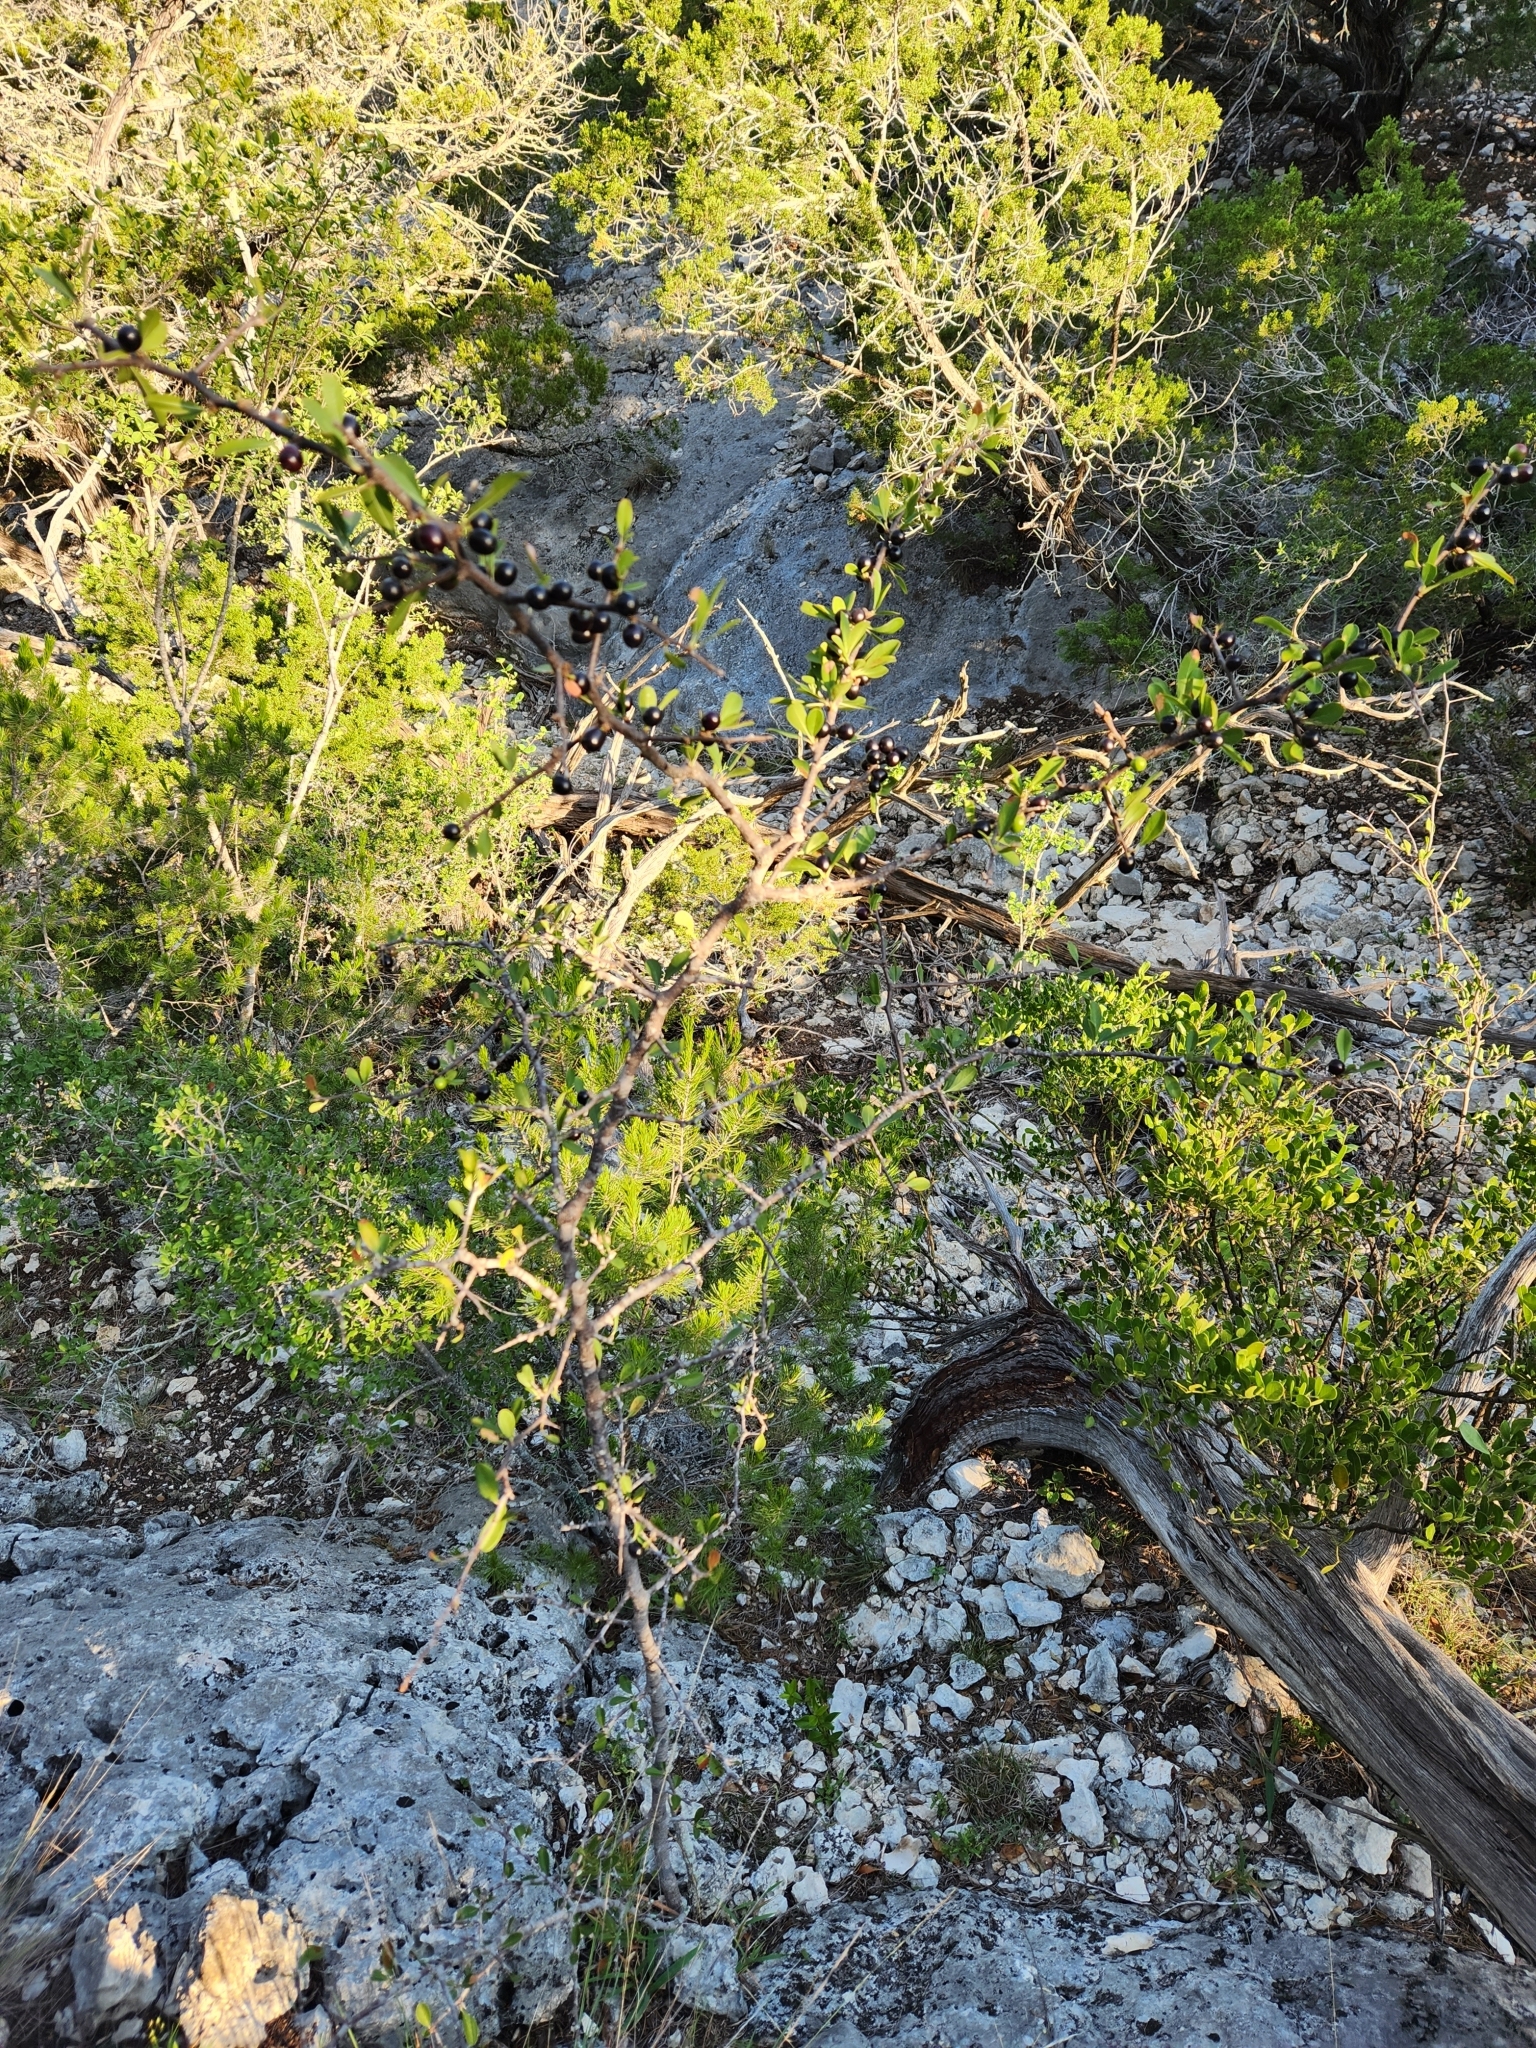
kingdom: Plantae
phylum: Tracheophyta
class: Magnoliopsida
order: Ericales
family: Sapotaceae
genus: Sideroxylon
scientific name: Sideroxylon lanuginosum
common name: Chittamwood
